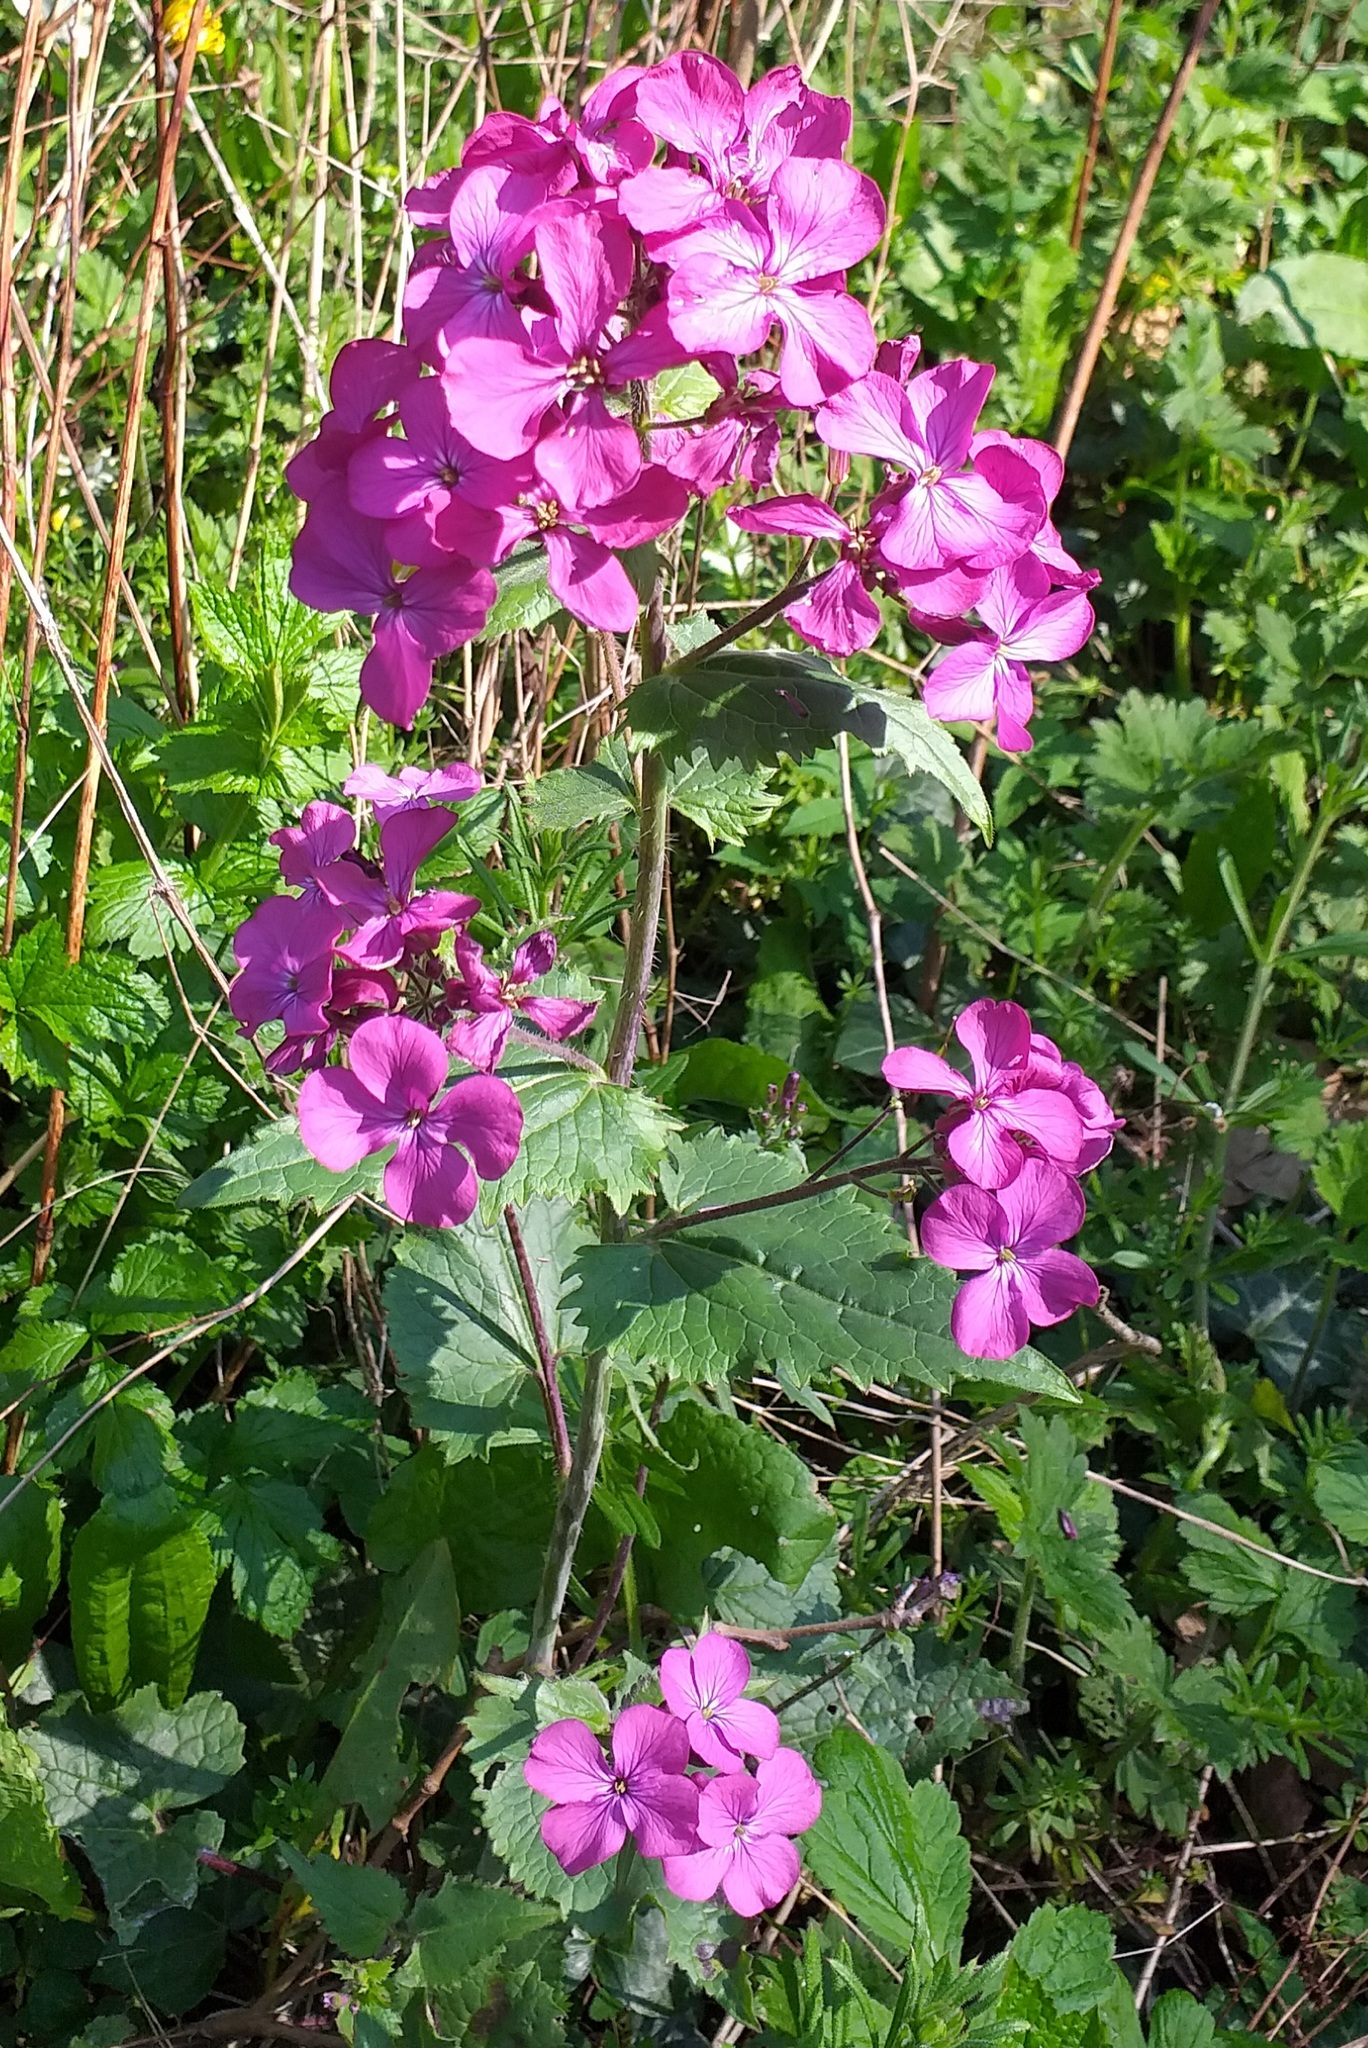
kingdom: Plantae
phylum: Tracheophyta
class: Magnoliopsida
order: Brassicales
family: Brassicaceae
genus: Lunaria
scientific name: Lunaria annua
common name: Honesty
